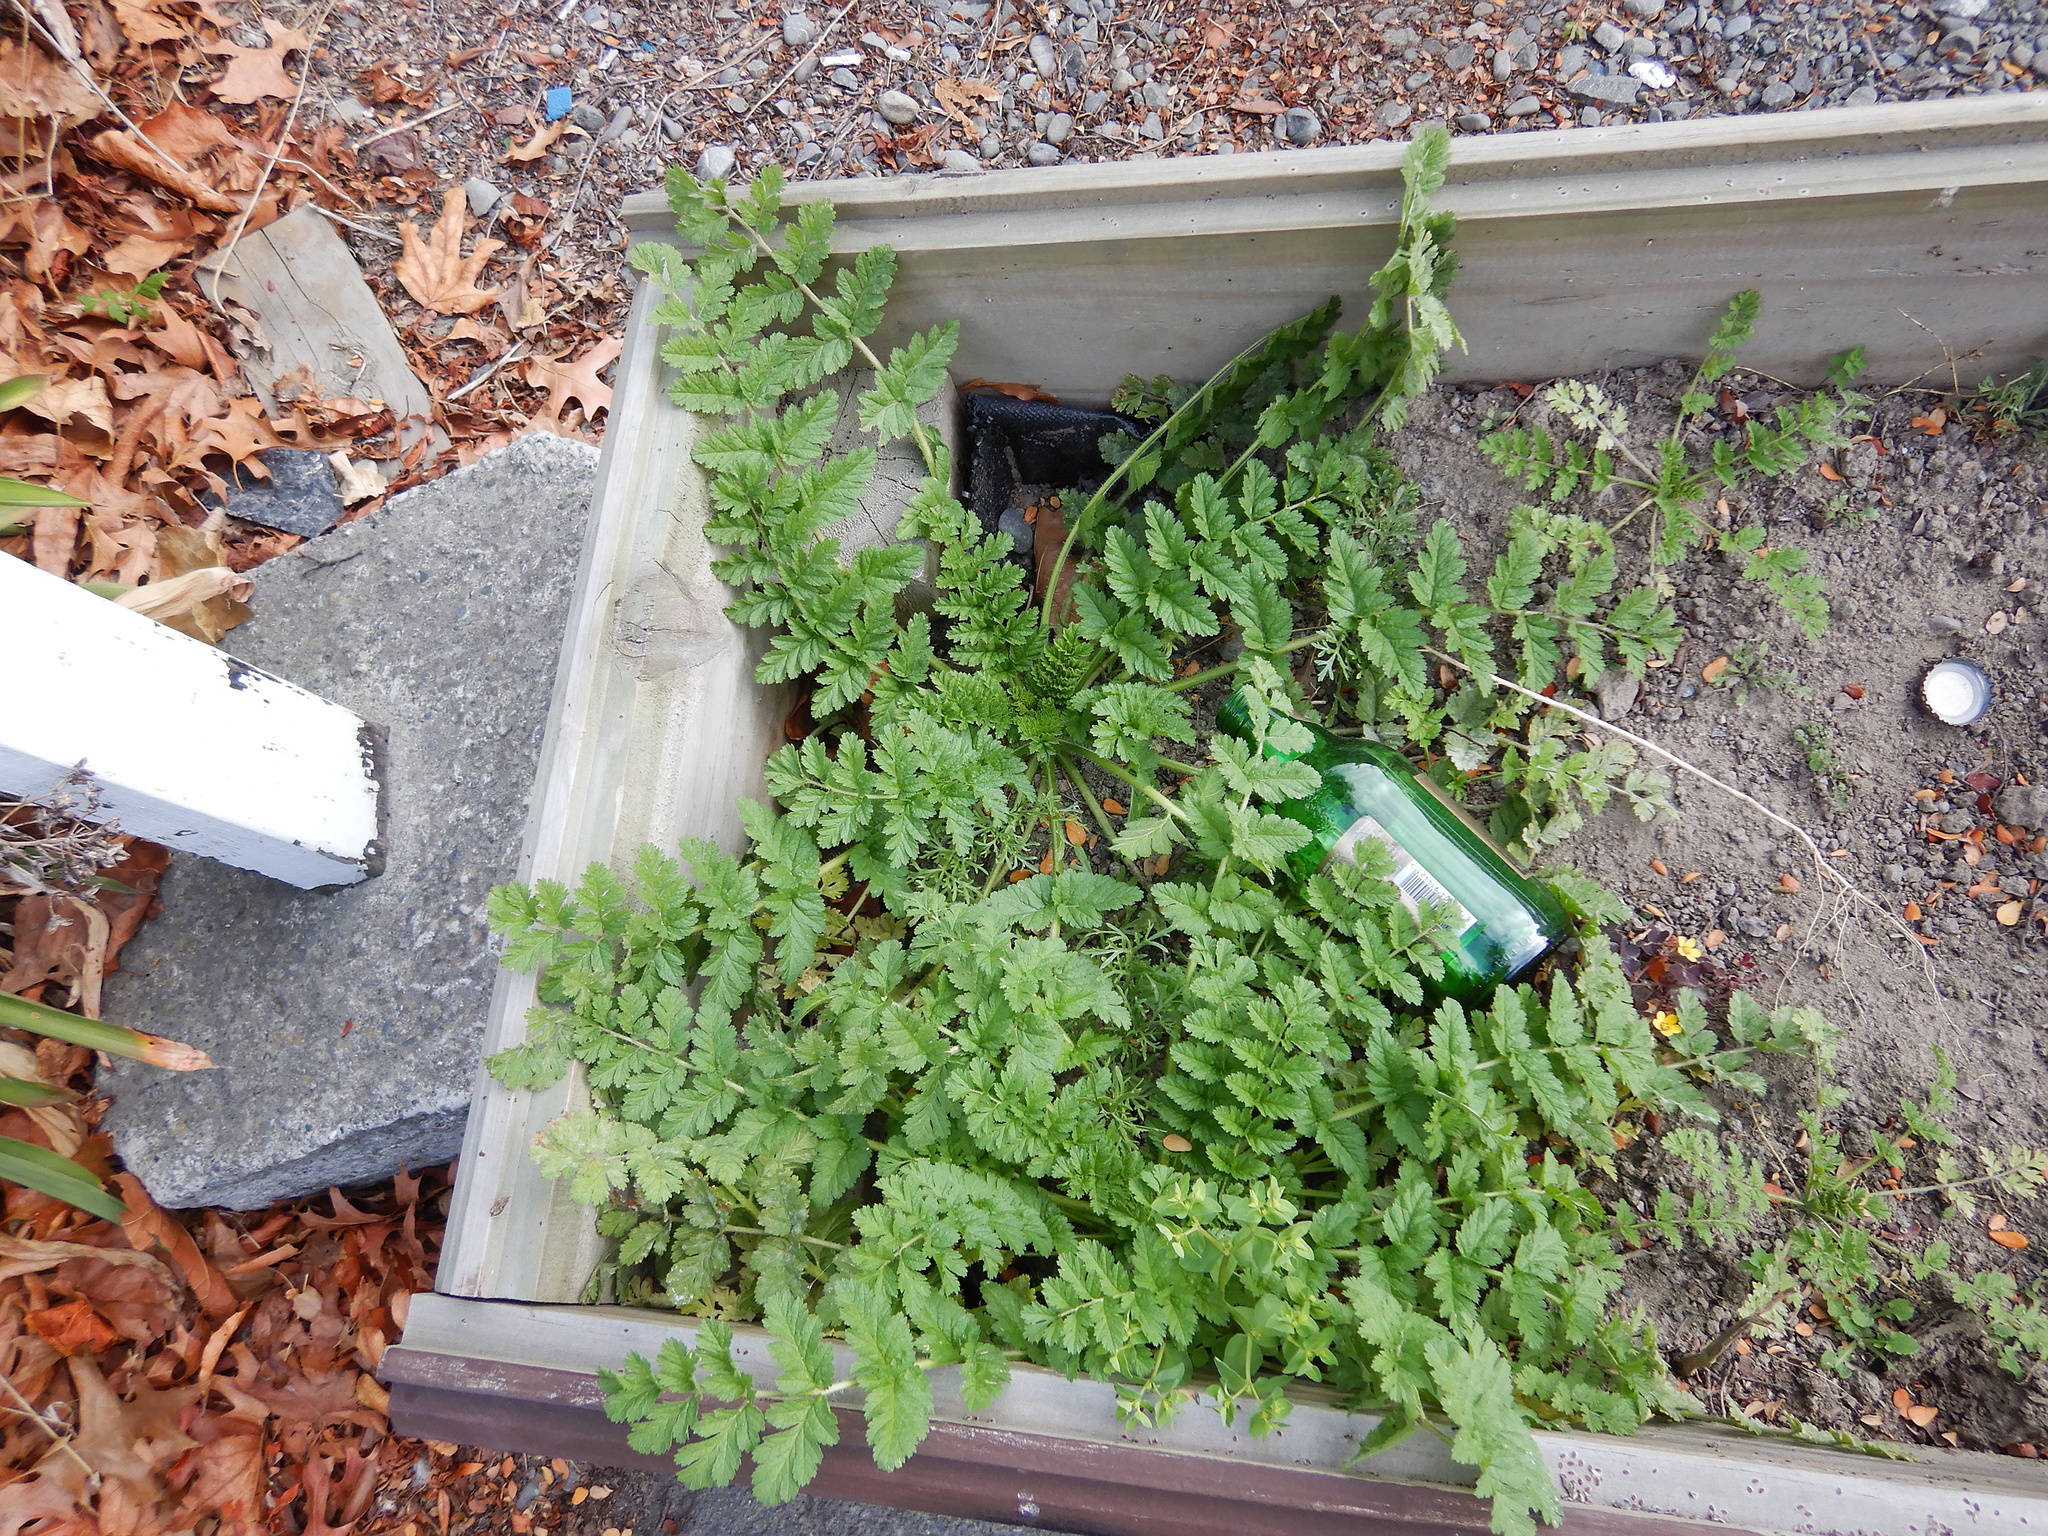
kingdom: Plantae
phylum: Tracheophyta
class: Magnoliopsida
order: Geraniales
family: Geraniaceae
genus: Erodium
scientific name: Erodium moschatum
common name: Musk stork's-bill
